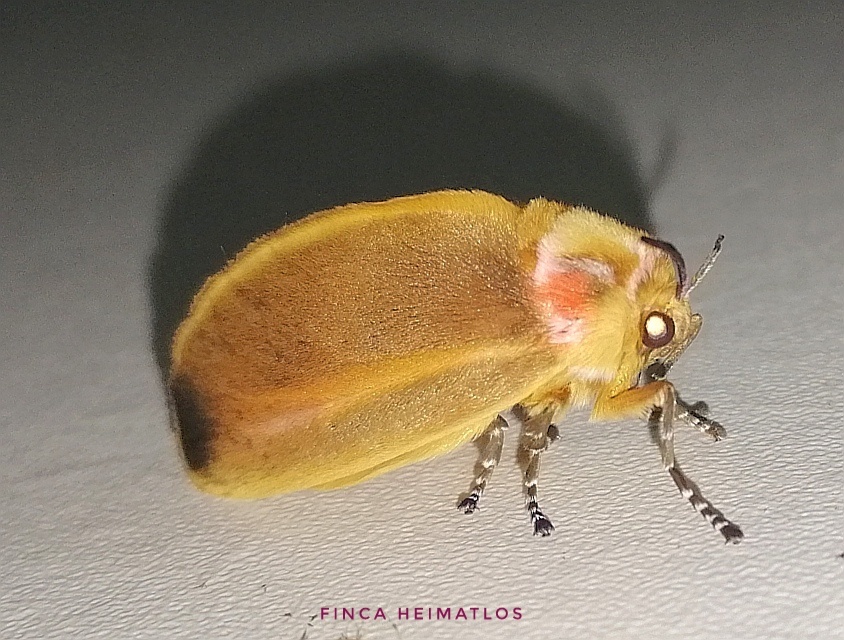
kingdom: Animalia
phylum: Arthropoda
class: Insecta
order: Lepidoptera
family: Megalopygidae
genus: Endobrachys
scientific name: Endobrachys revocans
